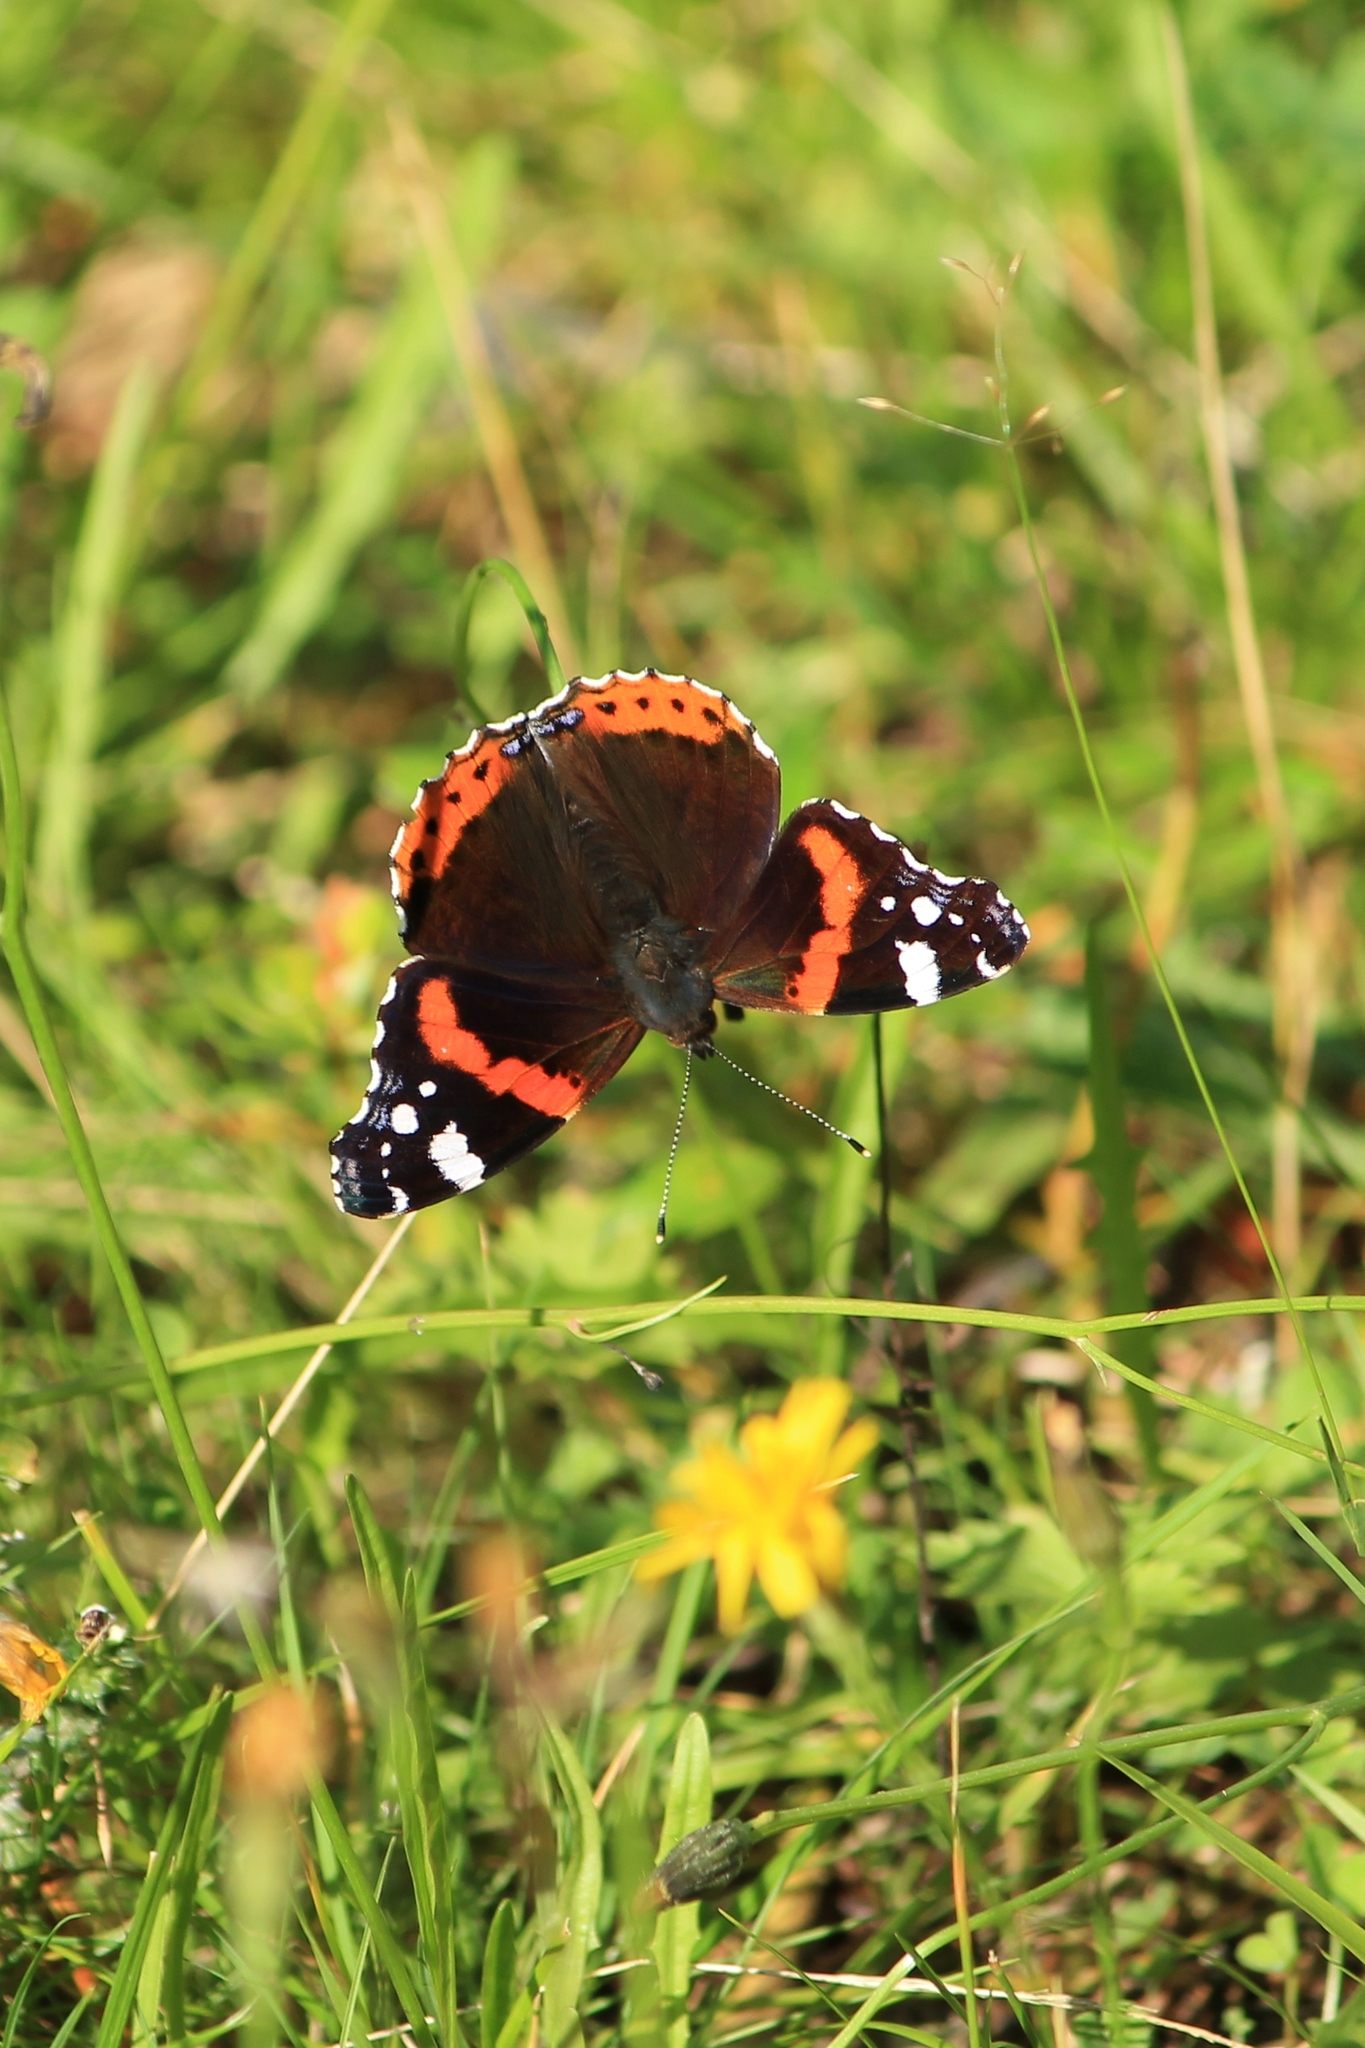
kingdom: Animalia
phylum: Arthropoda
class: Insecta
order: Lepidoptera
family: Nymphalidae
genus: Vanessa
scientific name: Vanessa atalanta
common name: Red admiral
